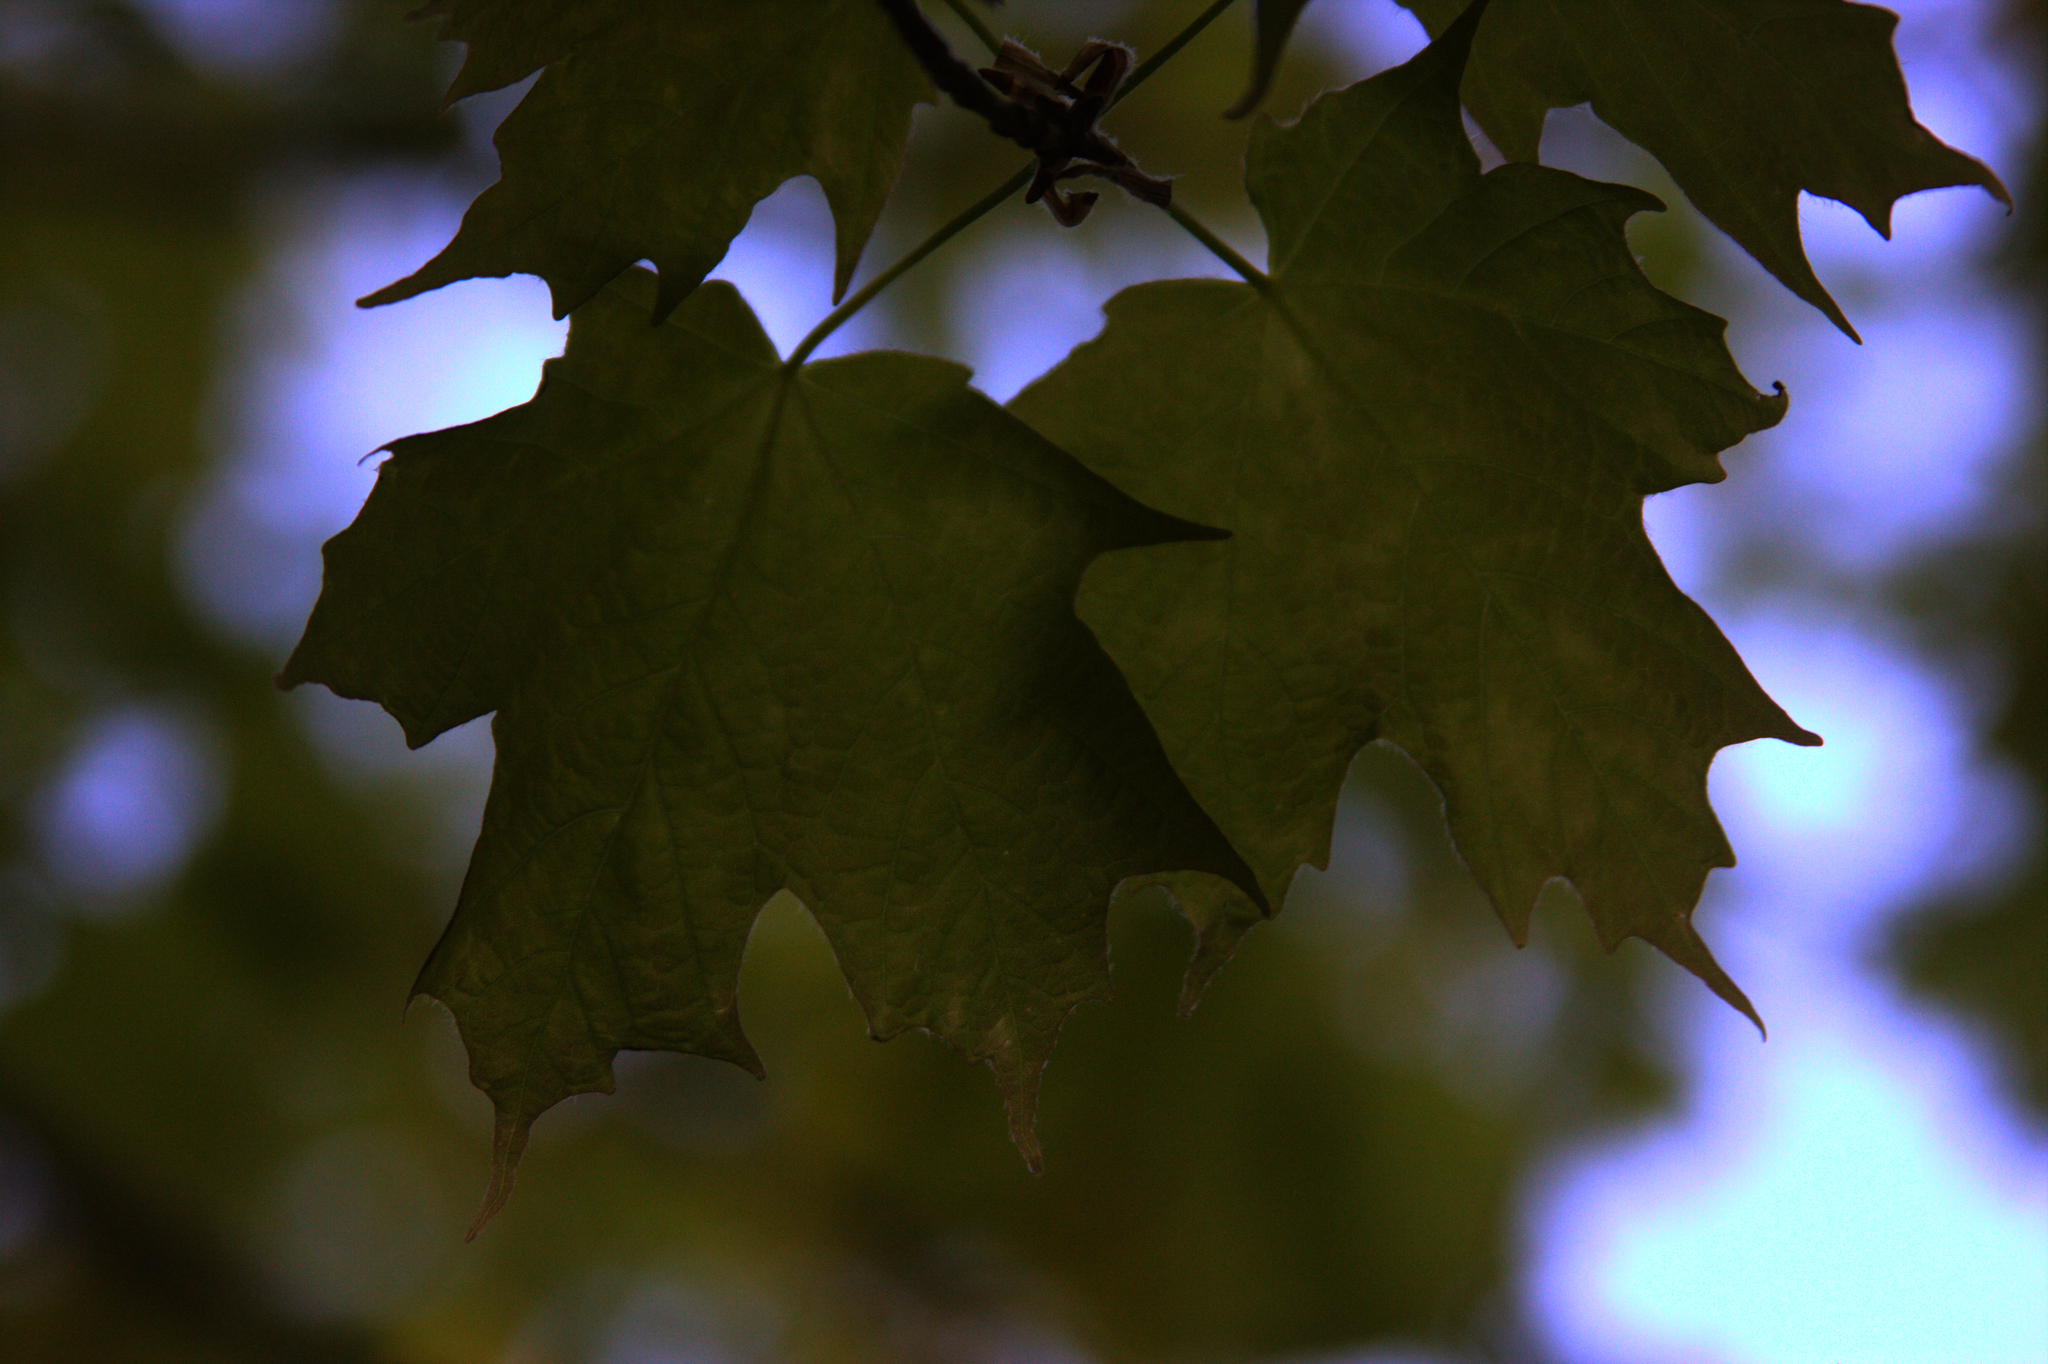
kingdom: Plantae
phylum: Tracheophyta
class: Magnoliopsida
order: Sapindales
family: Sapindaceae
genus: Acer
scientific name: Acer saccharum
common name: Sugar maple
